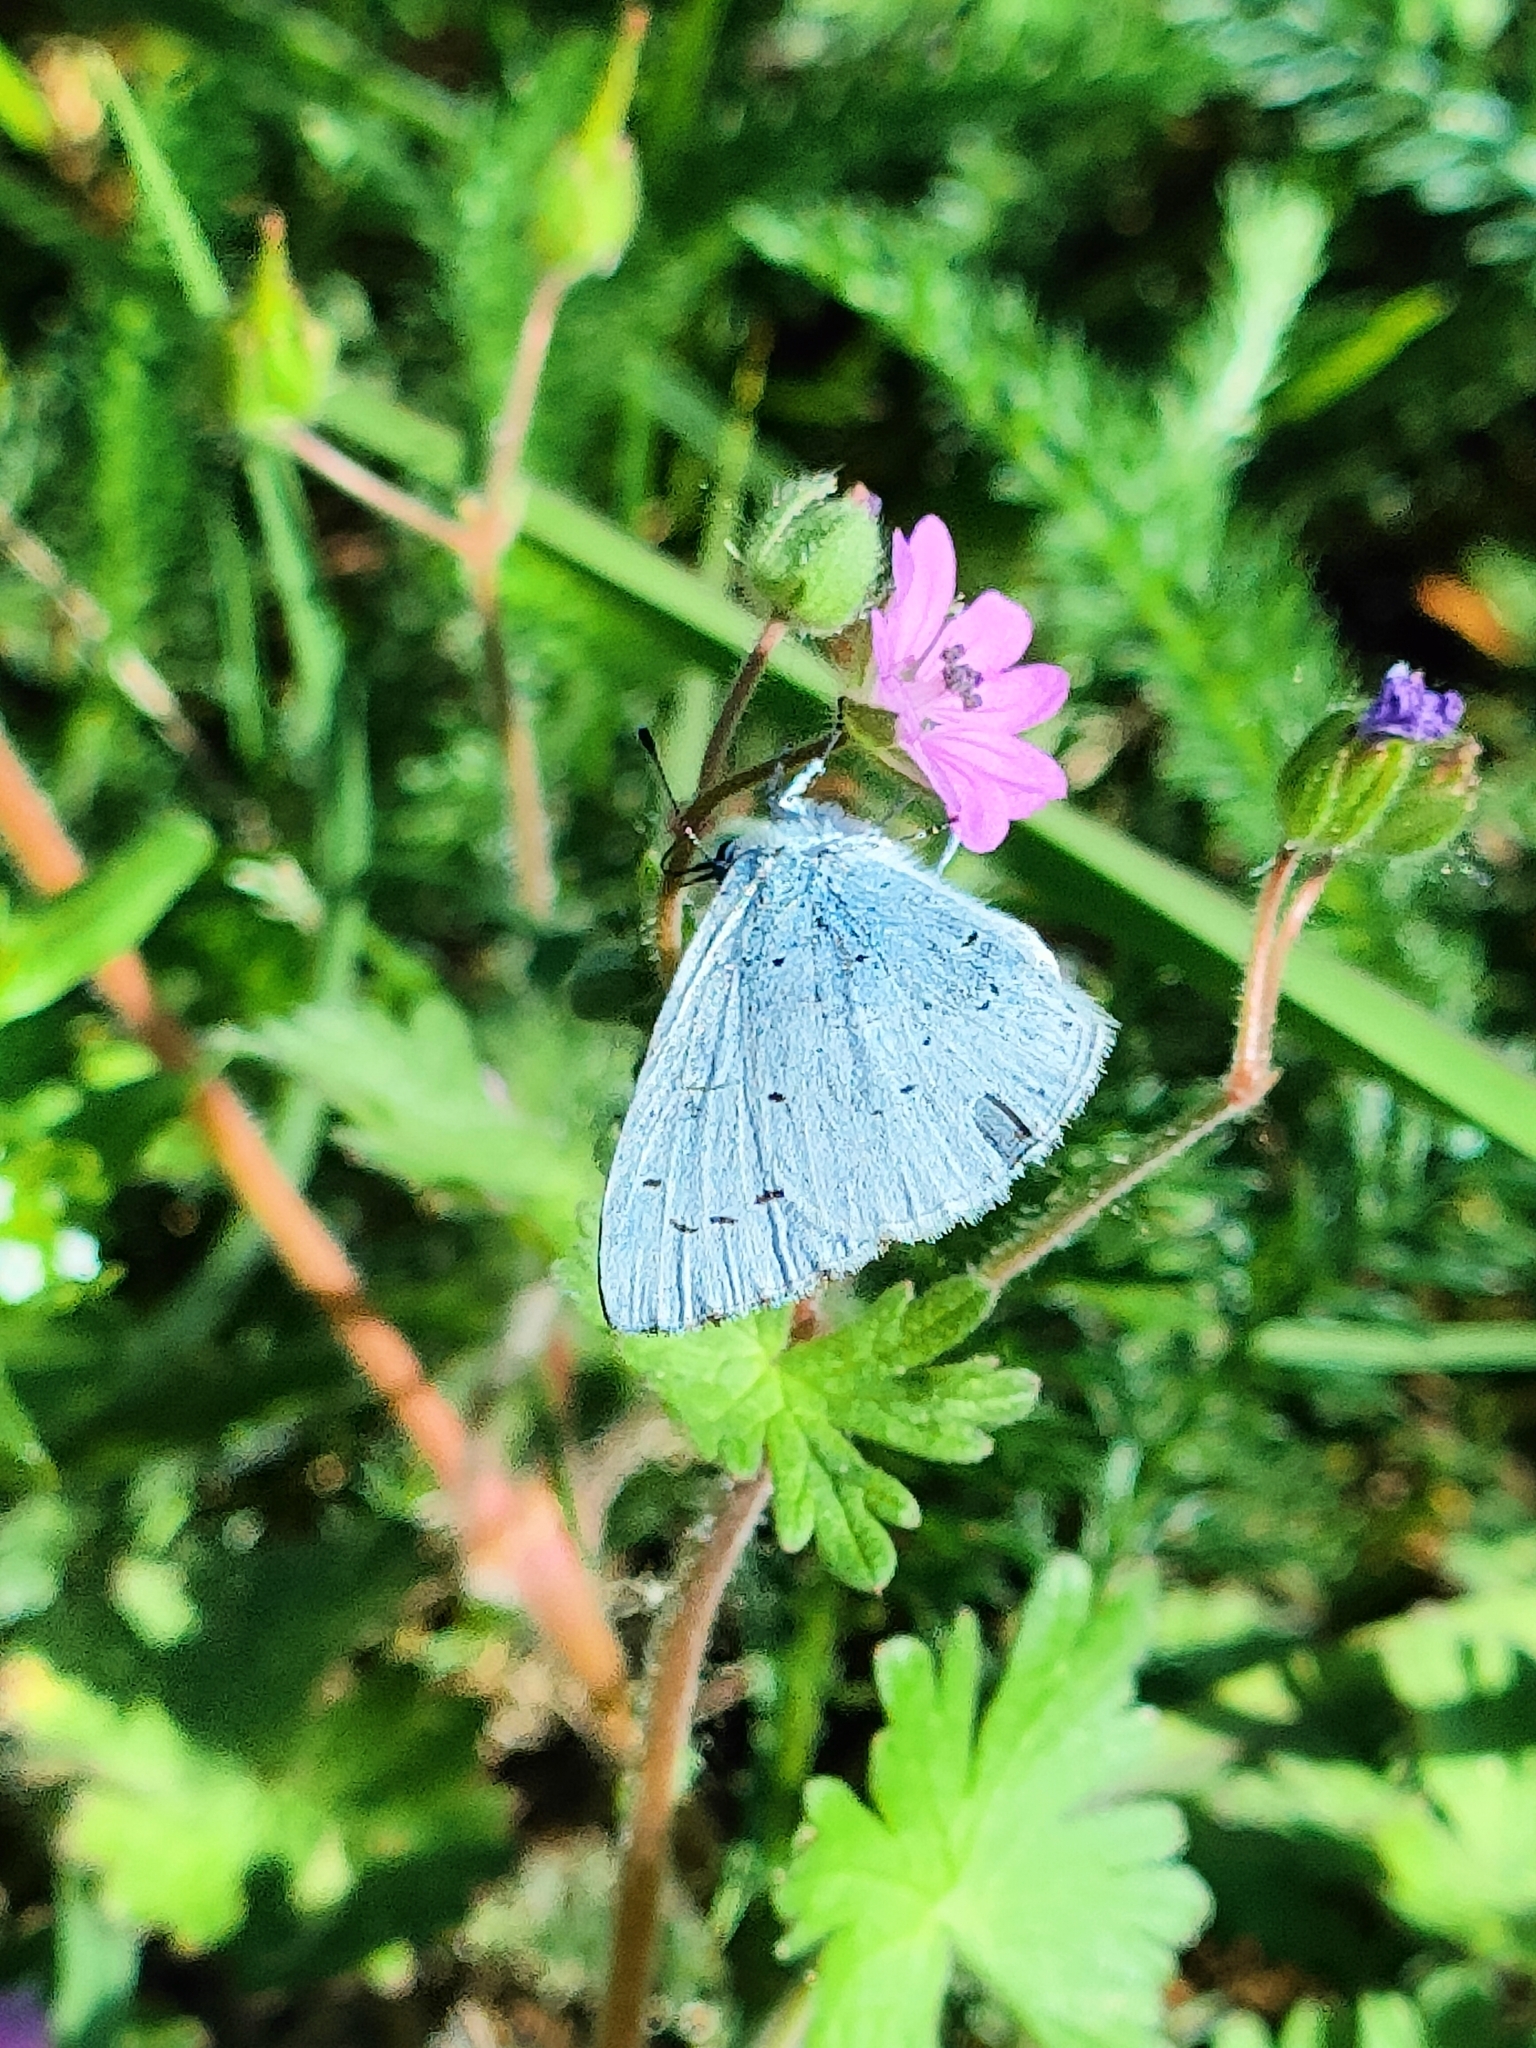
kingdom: Animalia
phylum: Arthropoda
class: Insecta
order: Lepidoptera
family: Lycaenidae
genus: Celastrina
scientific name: Celastrina argiolus
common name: Holly blue
